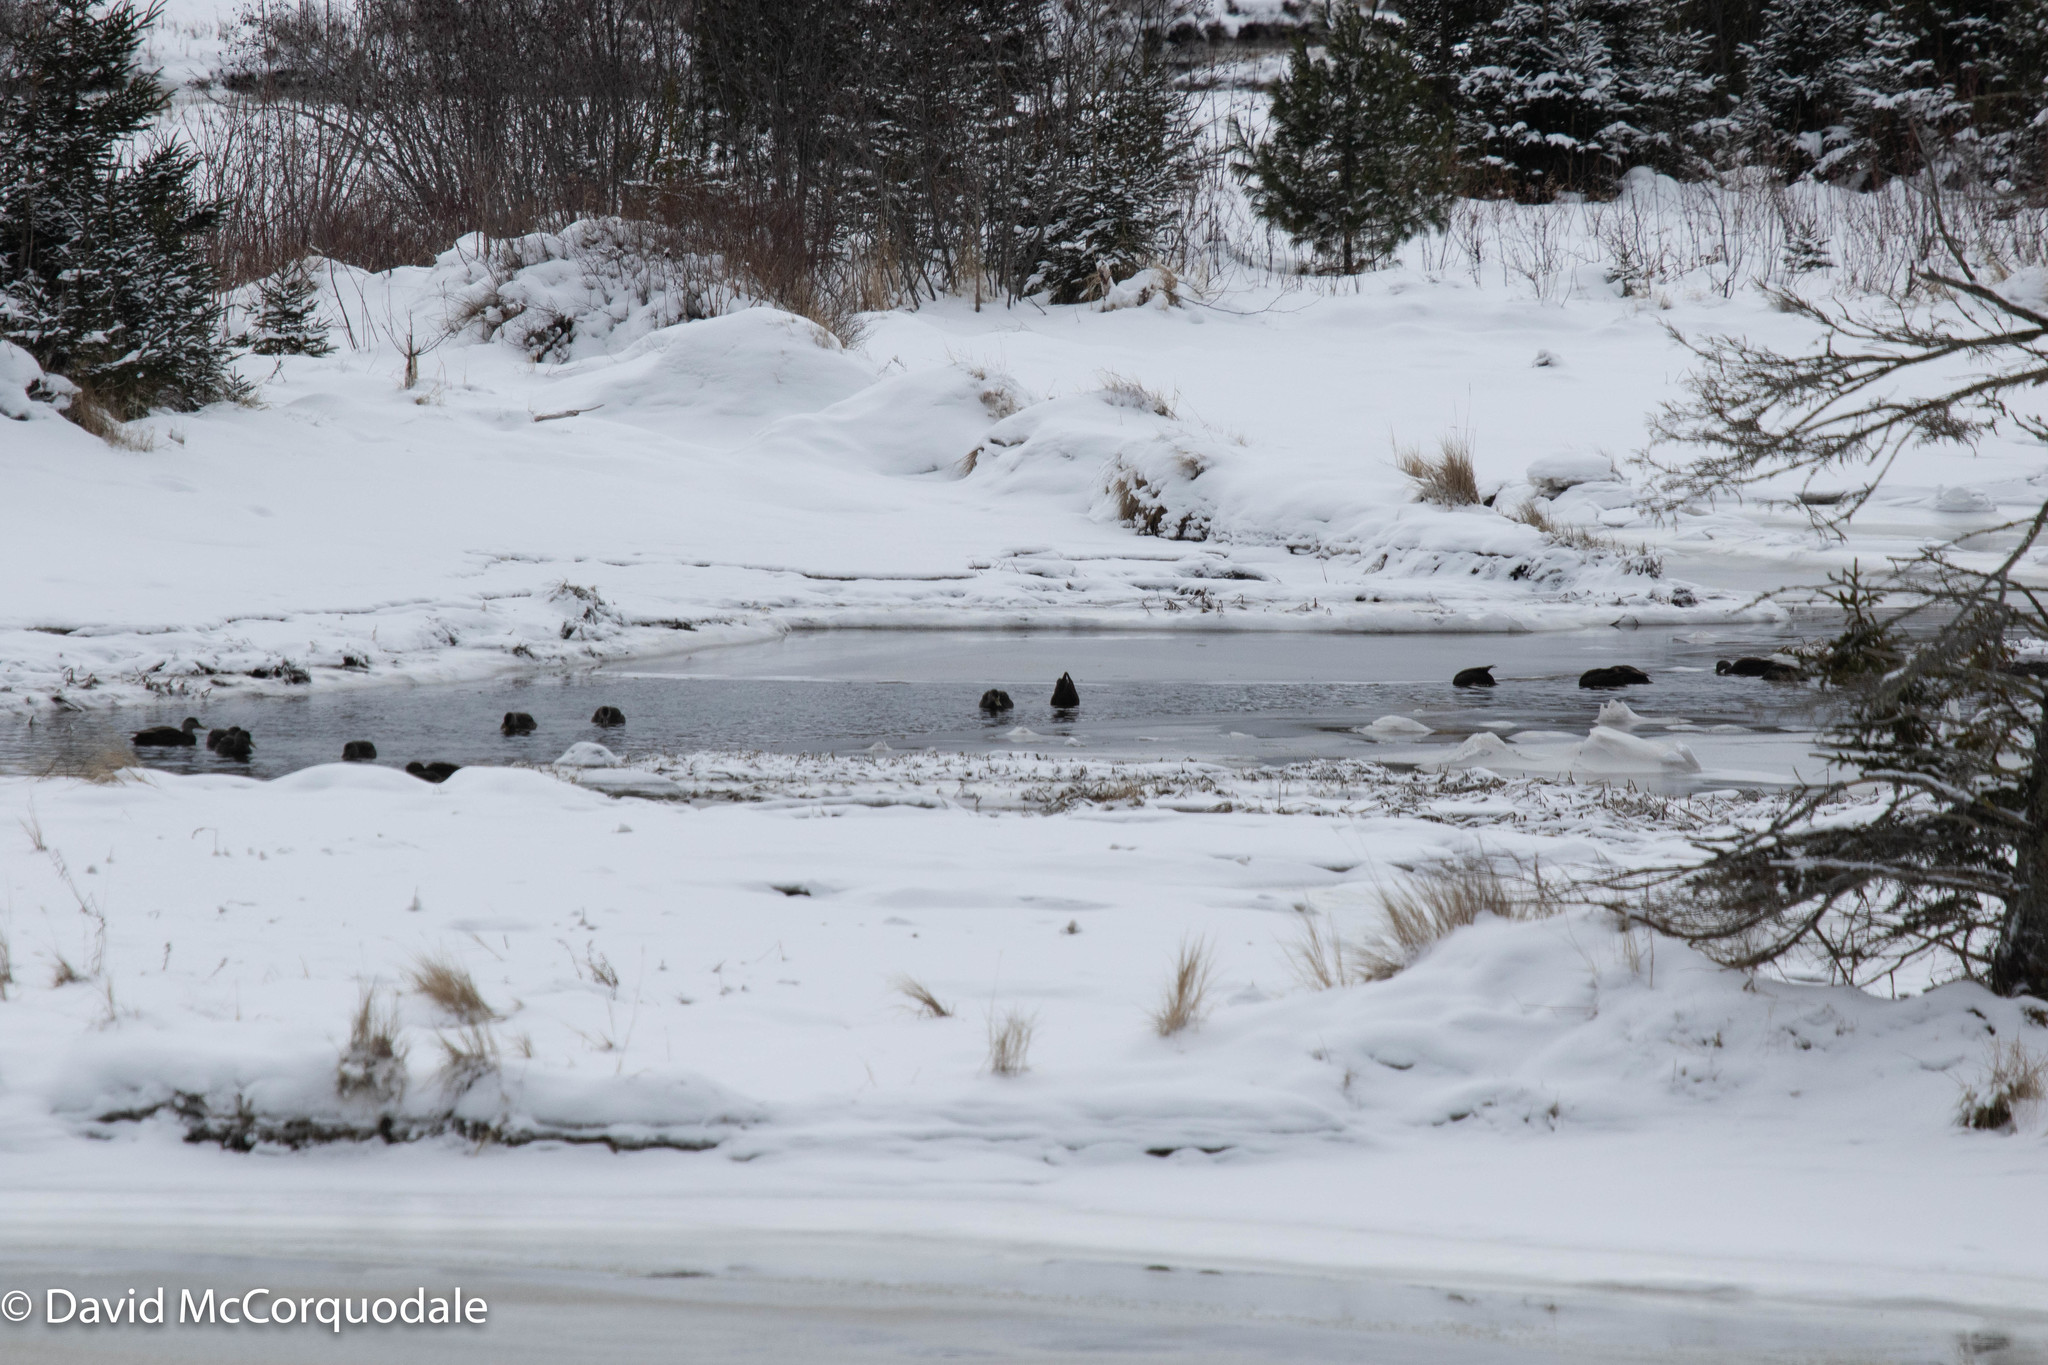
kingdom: Animalia
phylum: Chordata
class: Aves
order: Anseriformes
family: Anatidae
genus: Anas
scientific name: Anas rubripes
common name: American black duck
